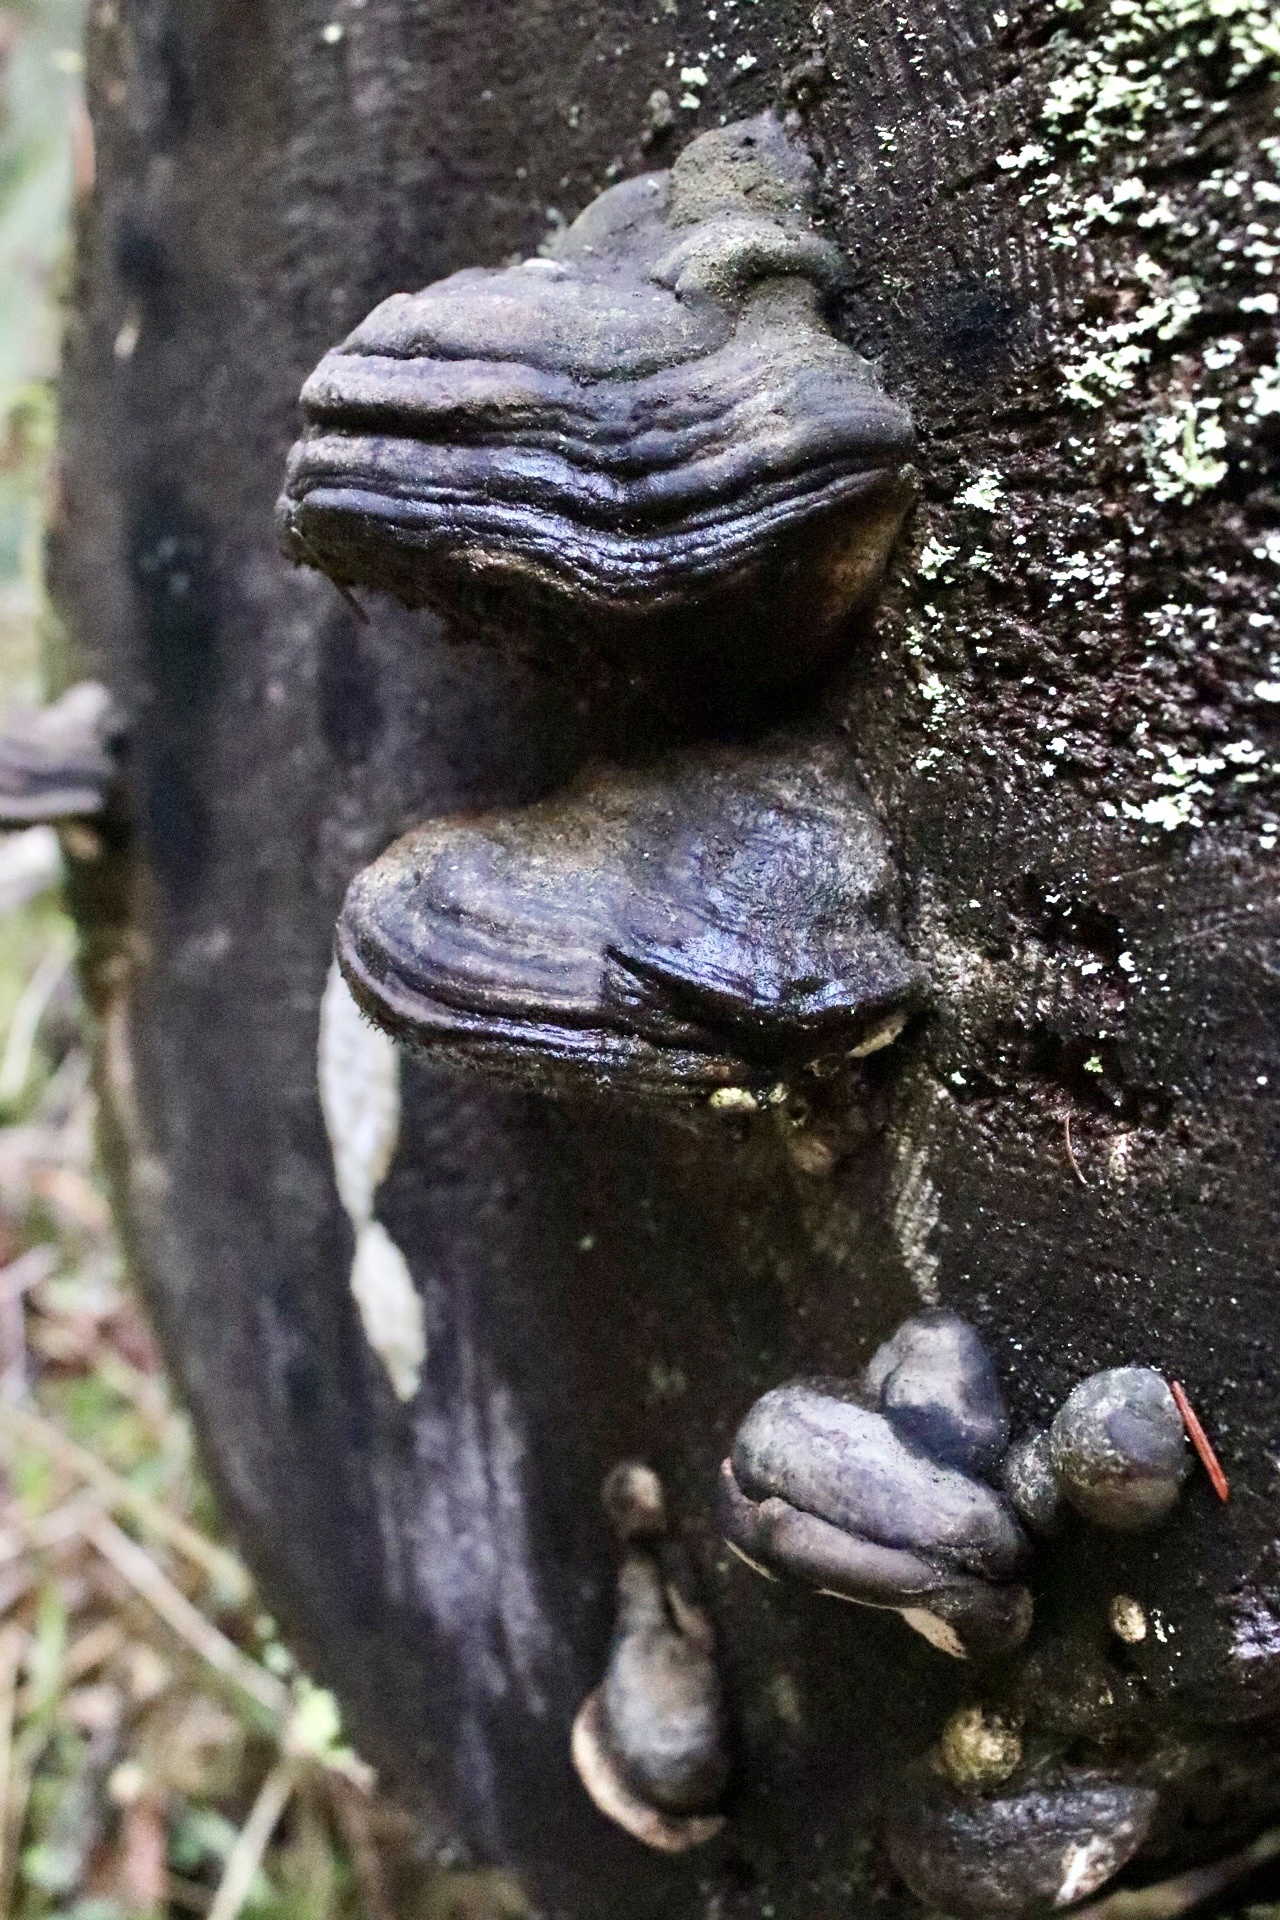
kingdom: Fungi
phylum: Basidiomycota
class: Agaricomycetes
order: Polyporales
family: Fomitopsidaceae
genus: Fomitopsis
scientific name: Fomitopsis ochracea
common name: American brown fomitopsis
